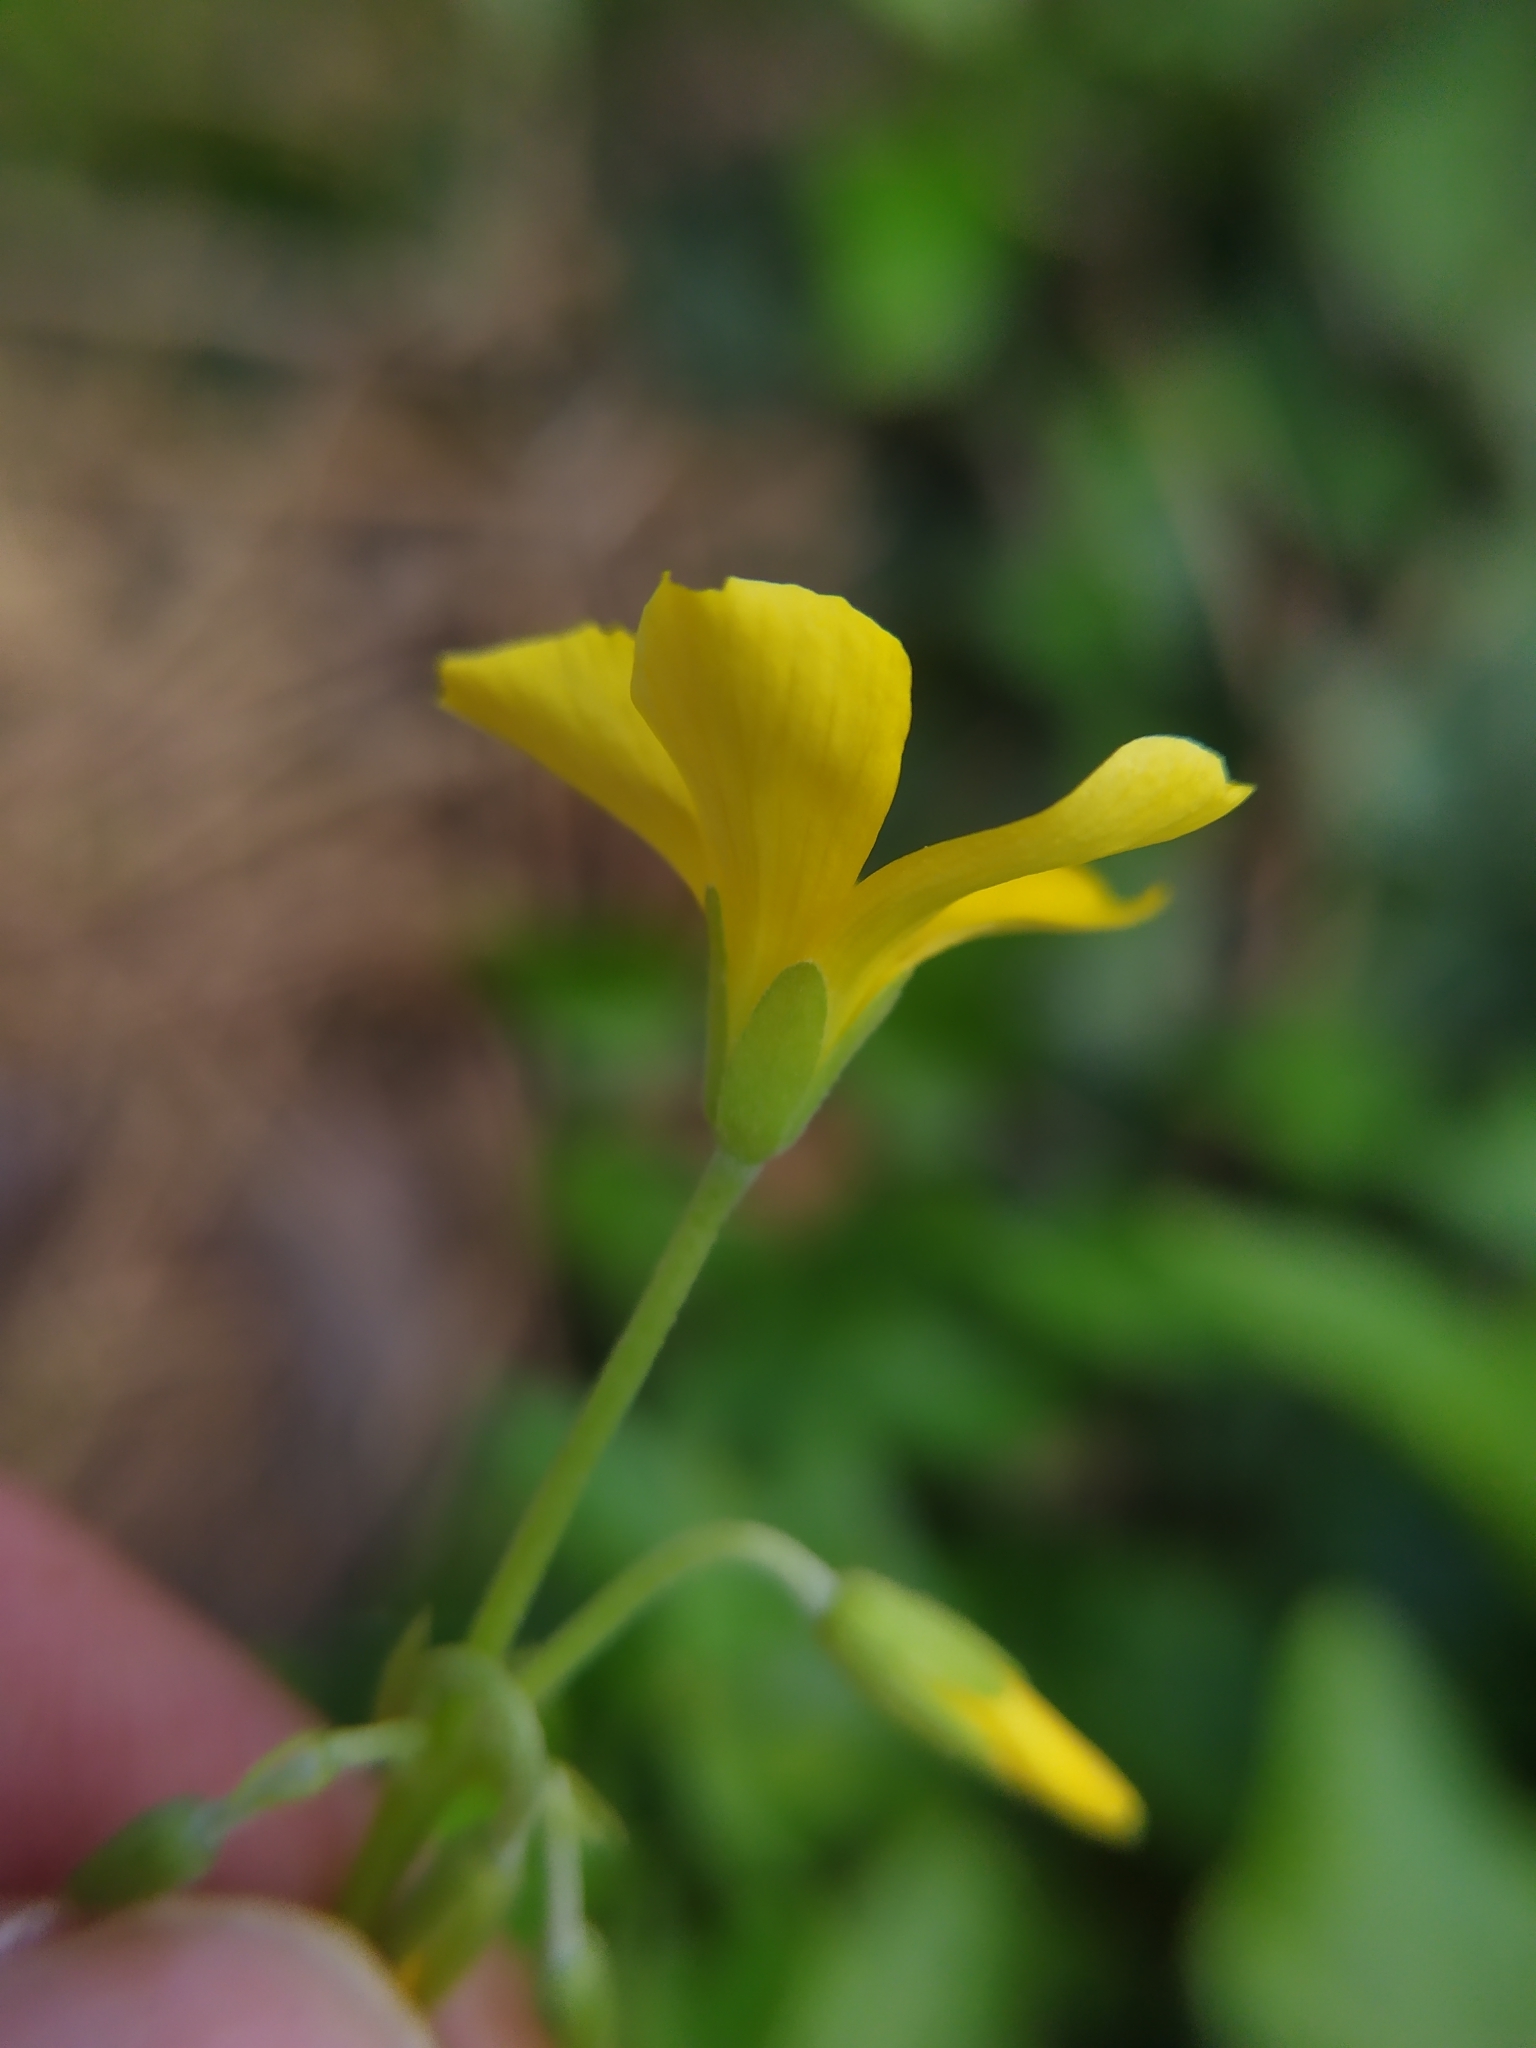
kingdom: Plantae
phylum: Tracheophyta
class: Magnoliopsida
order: Oxalidales
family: Oxalidaceae
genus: Oxalis
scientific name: Oxalis dillenii
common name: Sussex yellow-sorrel
